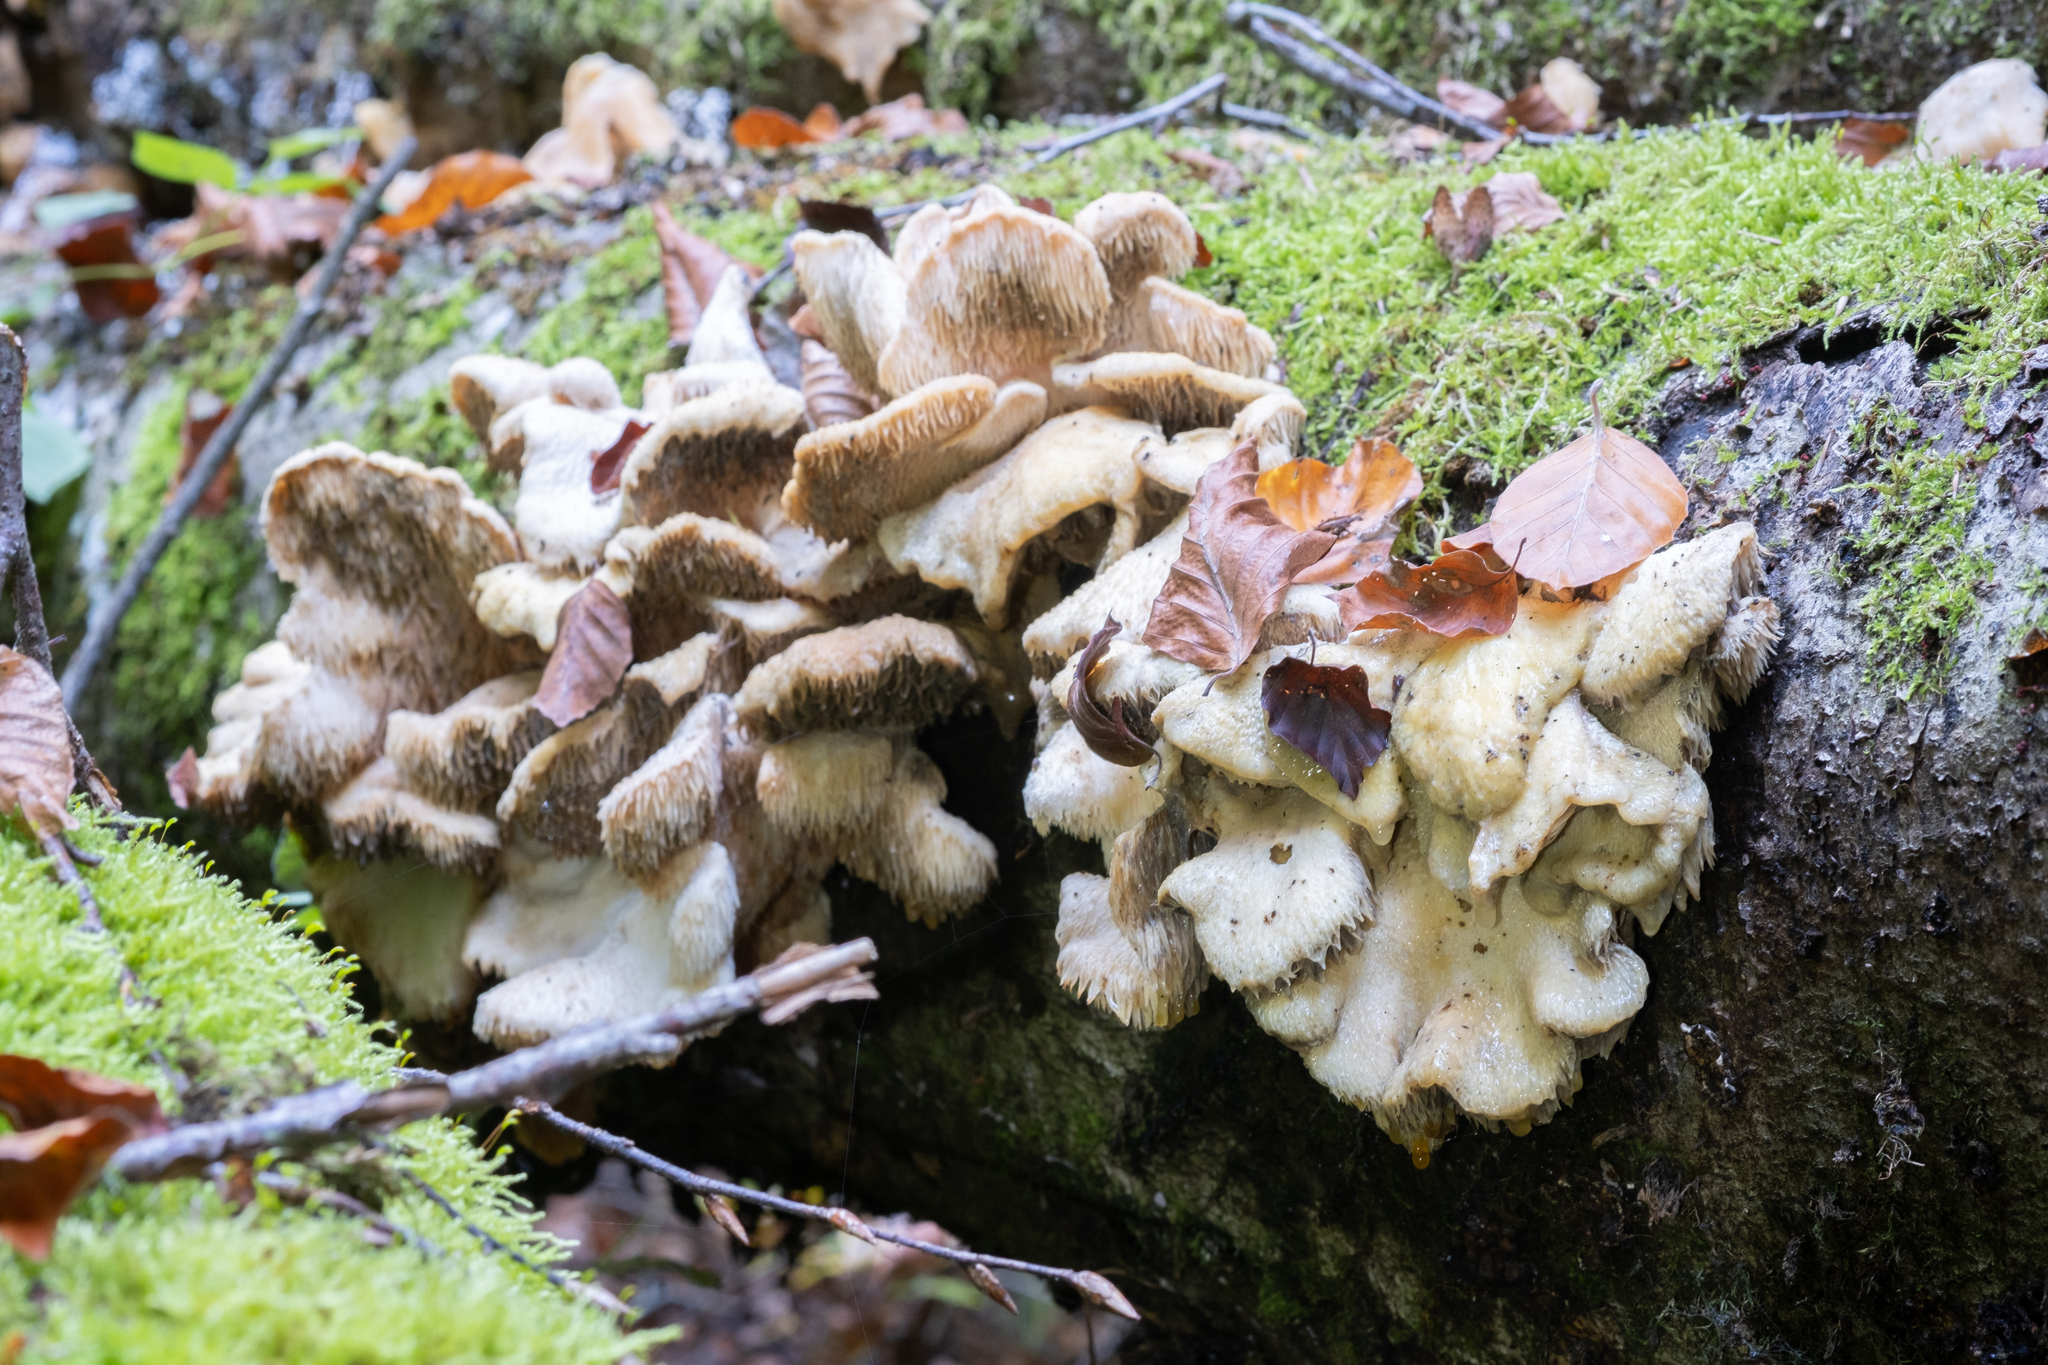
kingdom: Fungi
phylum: Basidiomycota
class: Agaricomycetes
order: Russulales
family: Hericiaceae
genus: Hericium
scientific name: Hericium cirrhatum
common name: Tiered tooth
